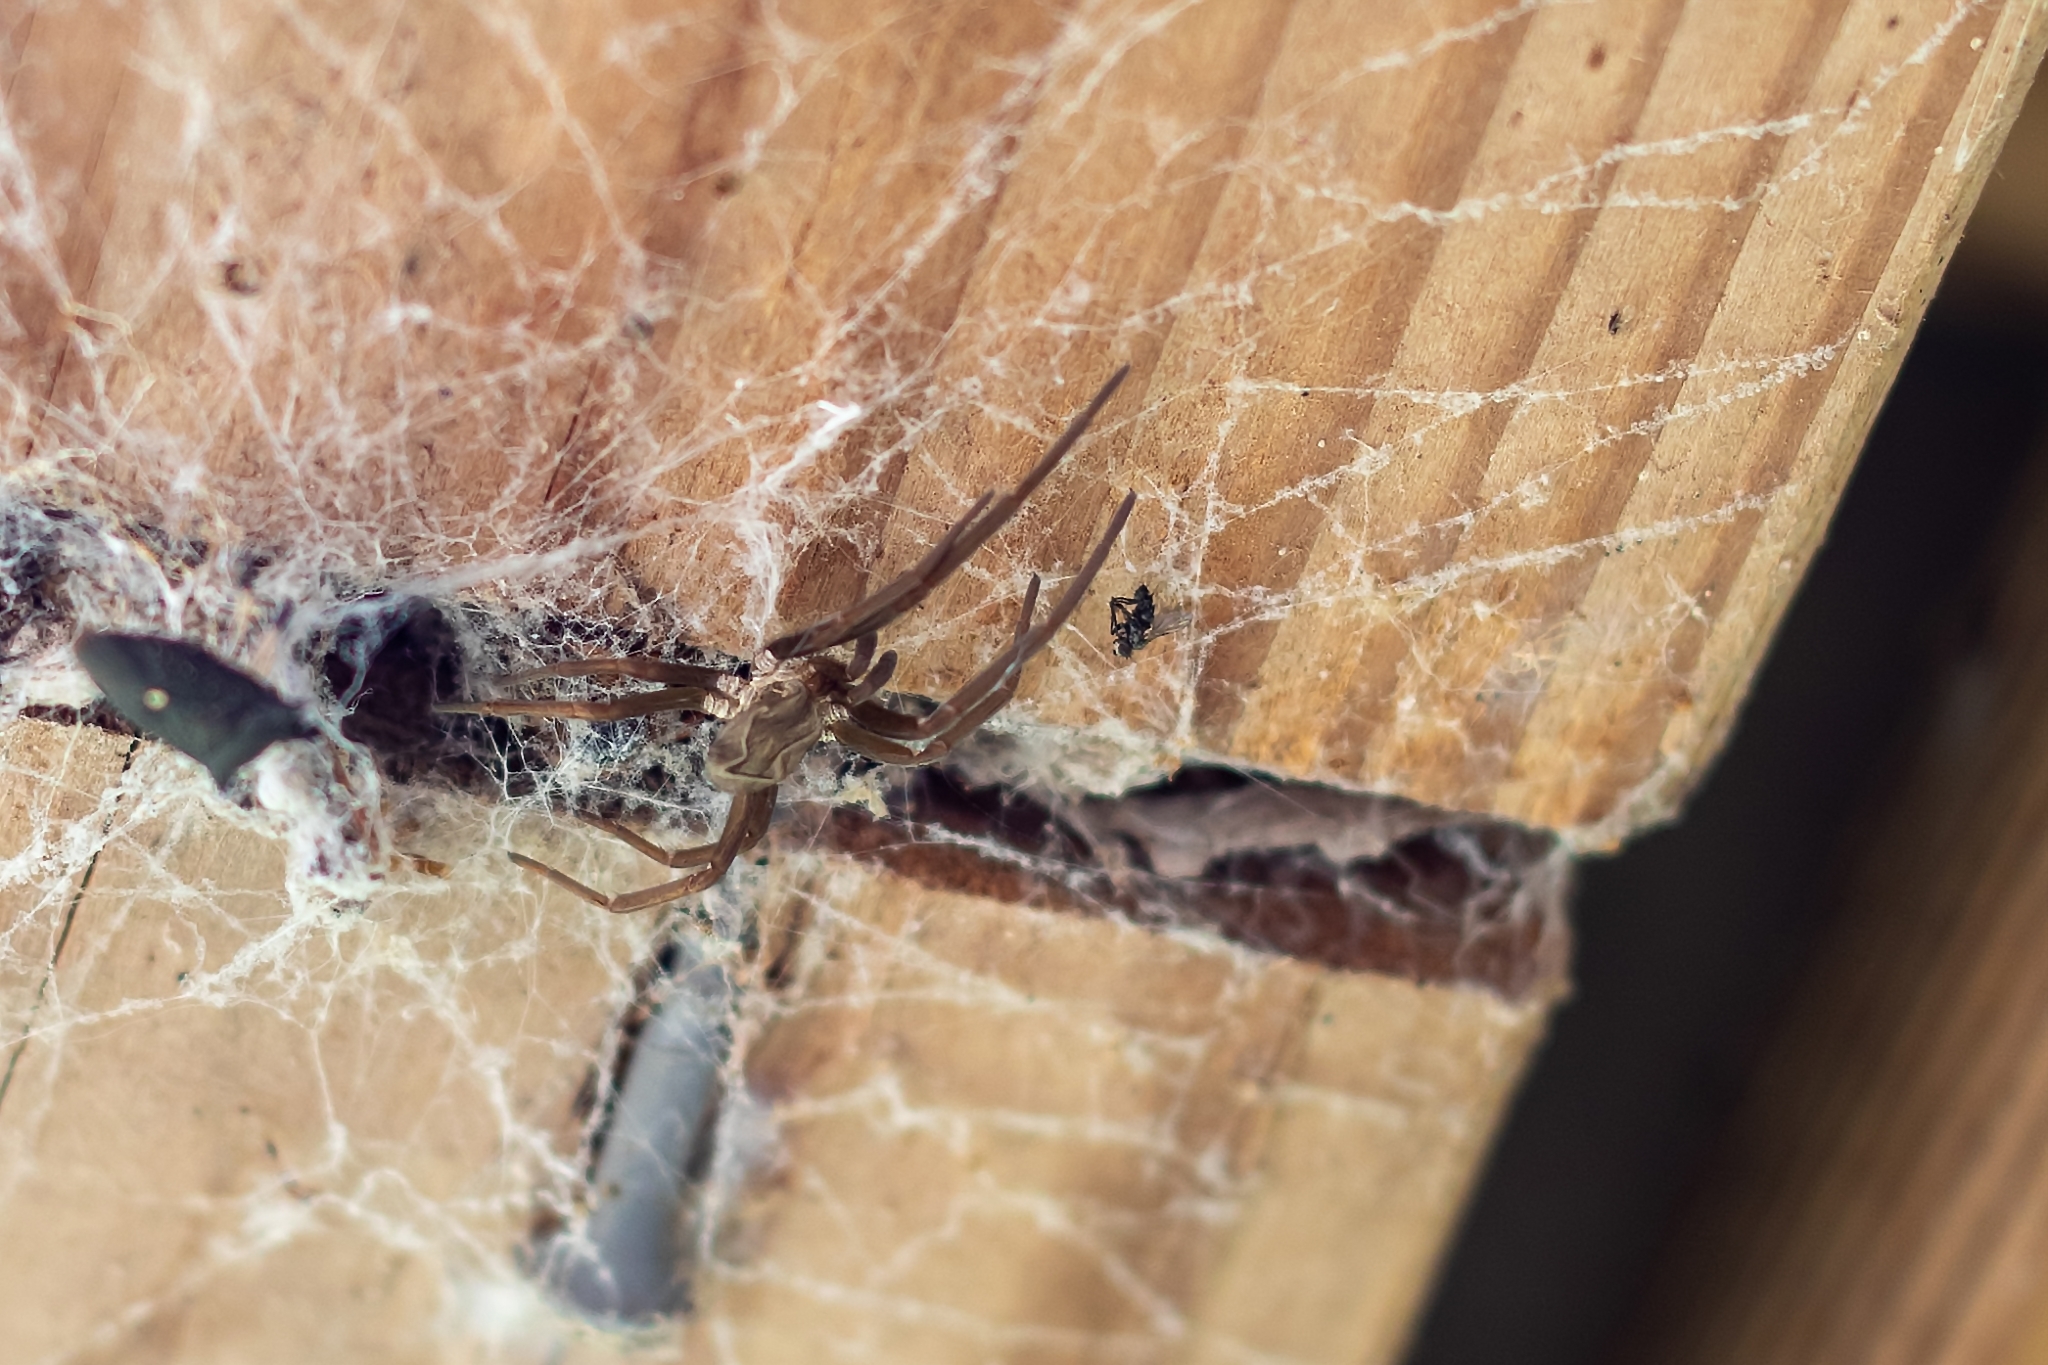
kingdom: Animalia
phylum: Arthropoda
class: Arachnida
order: Araneae
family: Filistatidae
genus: Kukulcania
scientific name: Kukulcania hibernalis
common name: Crevice weaver
